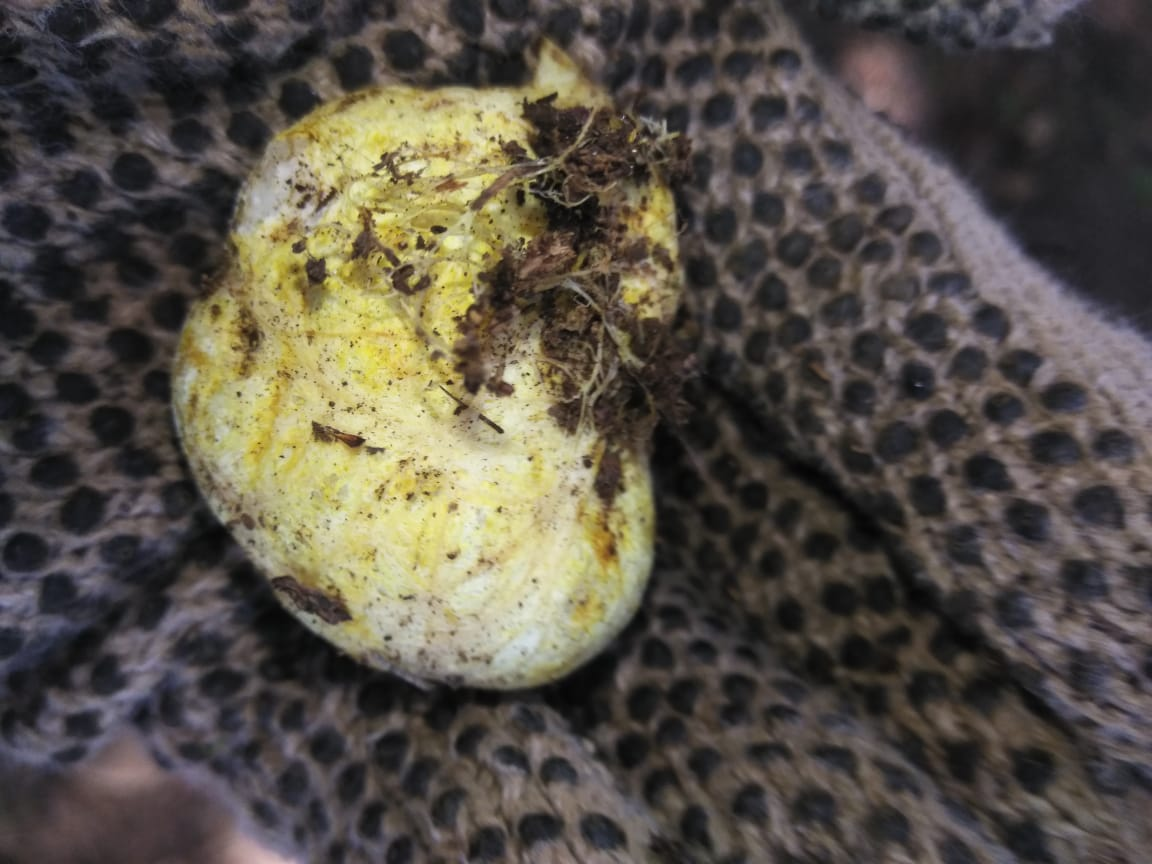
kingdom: Fungi
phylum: Basidiomycota
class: Agaricomycetes
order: Boletales
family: Rhizopogonaceae
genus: Rhizopogon
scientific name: Rhizopogon ochraceorubens
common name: Yellow beard truffle
